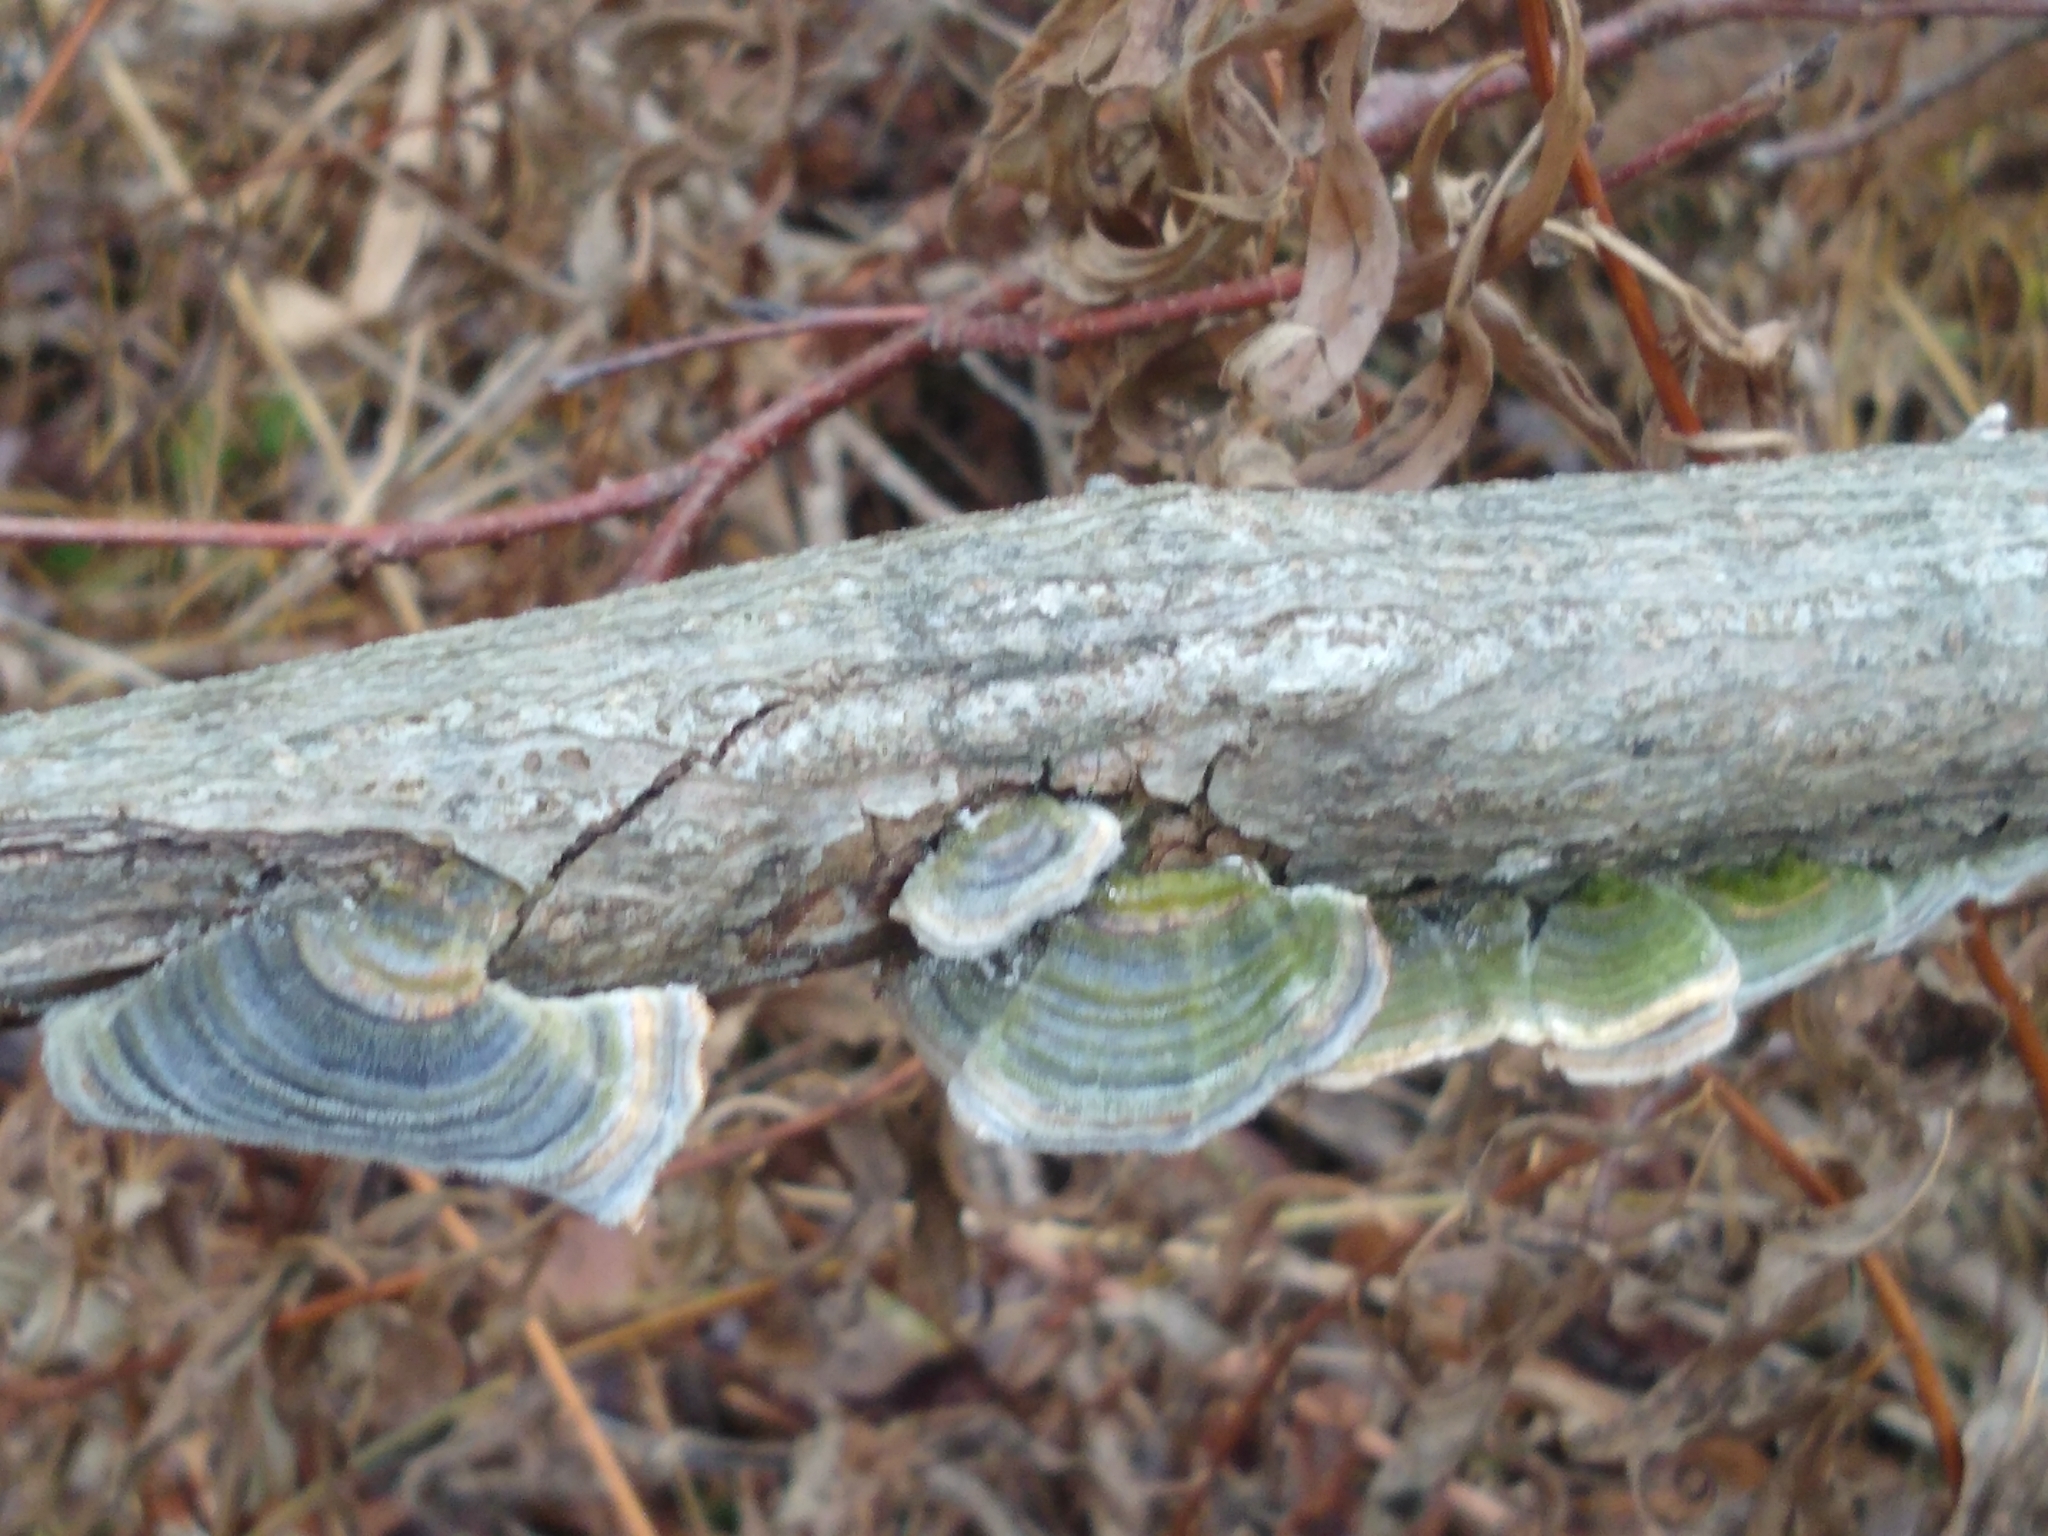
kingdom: Fungi
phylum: Basidiomycota
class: Agaricomycetes
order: Polyporales
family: Polyporaceae
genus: Trametes
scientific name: Trametes versicolor
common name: Turkeytail
